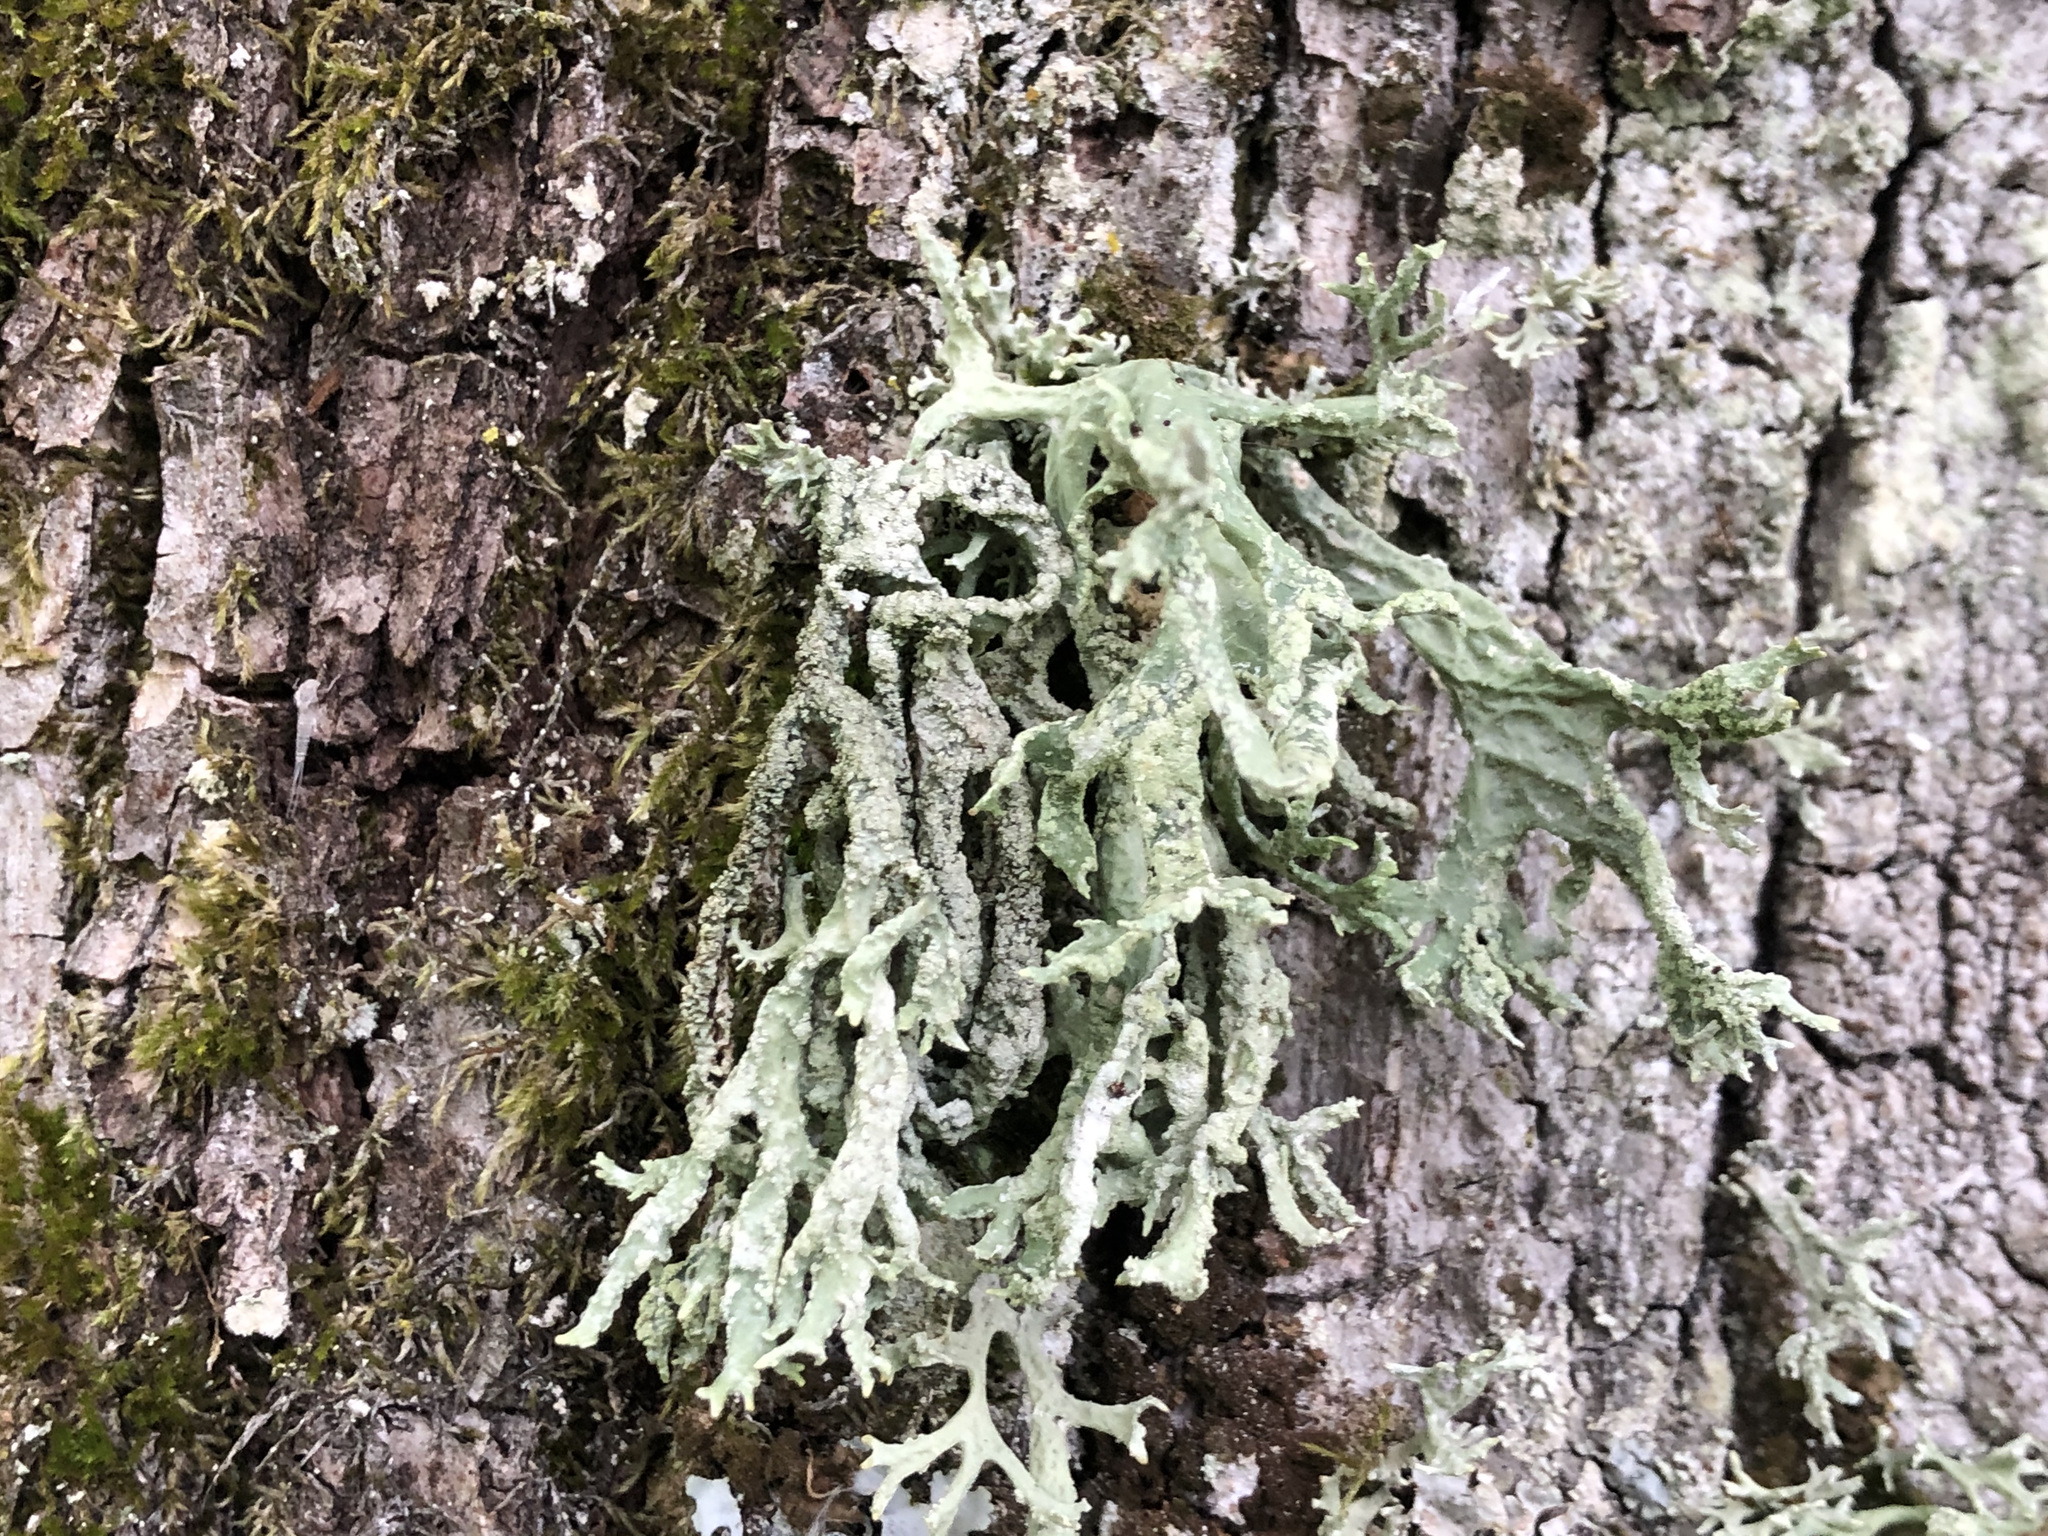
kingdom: Fungi
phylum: Ascomycota
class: Lecanoromycetes
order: Lecanorales
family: Parmeliaceae
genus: Evernia
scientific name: Evernia prunastri
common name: Oak moss
